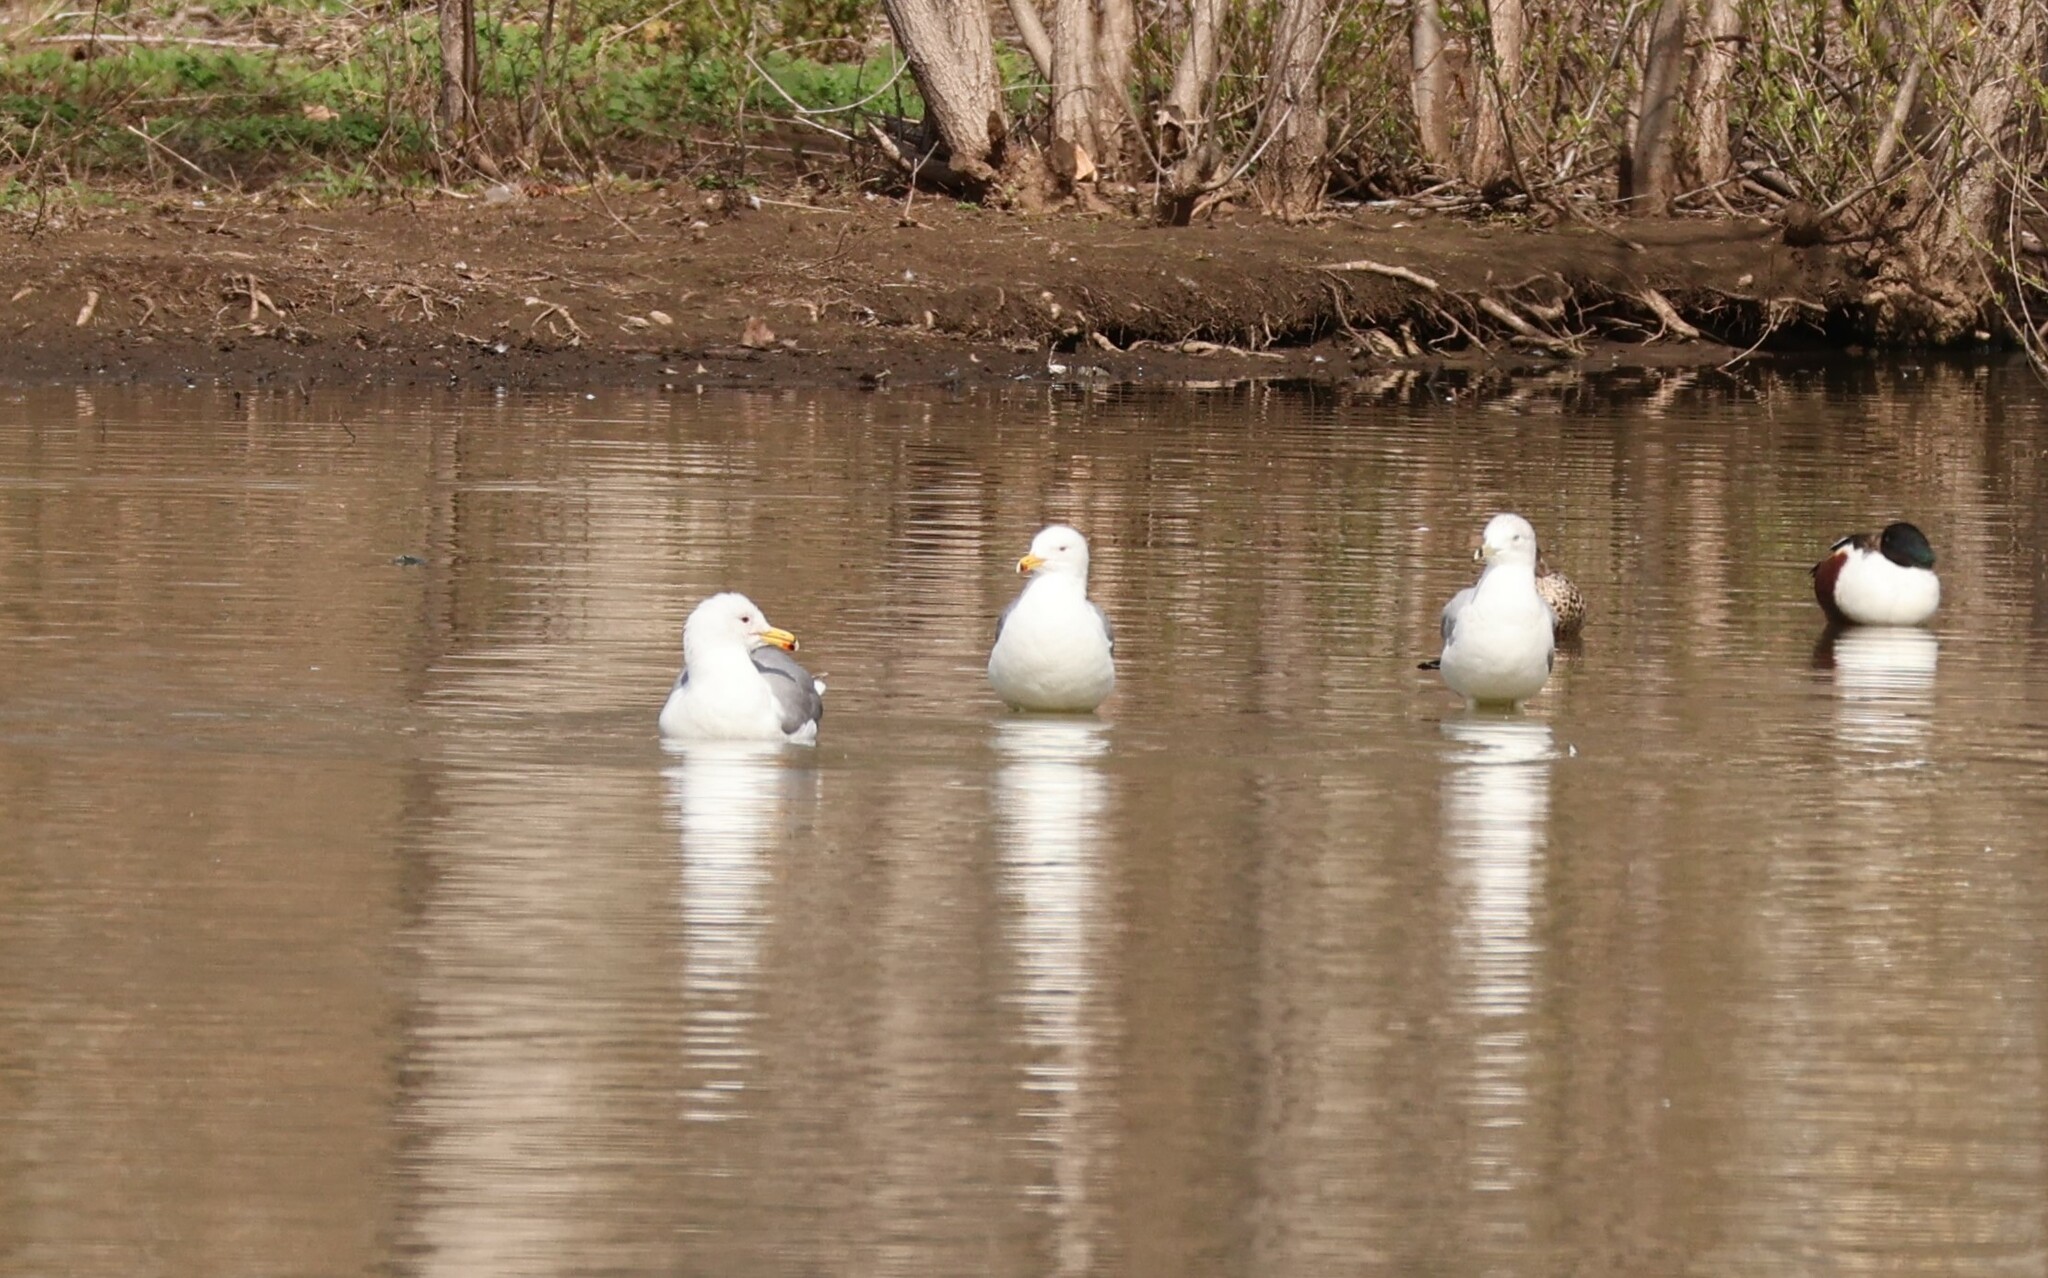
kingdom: Animalia
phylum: Chordata
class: Aves
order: Charadriiformes
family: Laridae
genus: Larus
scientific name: Larus californicus
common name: California gull
